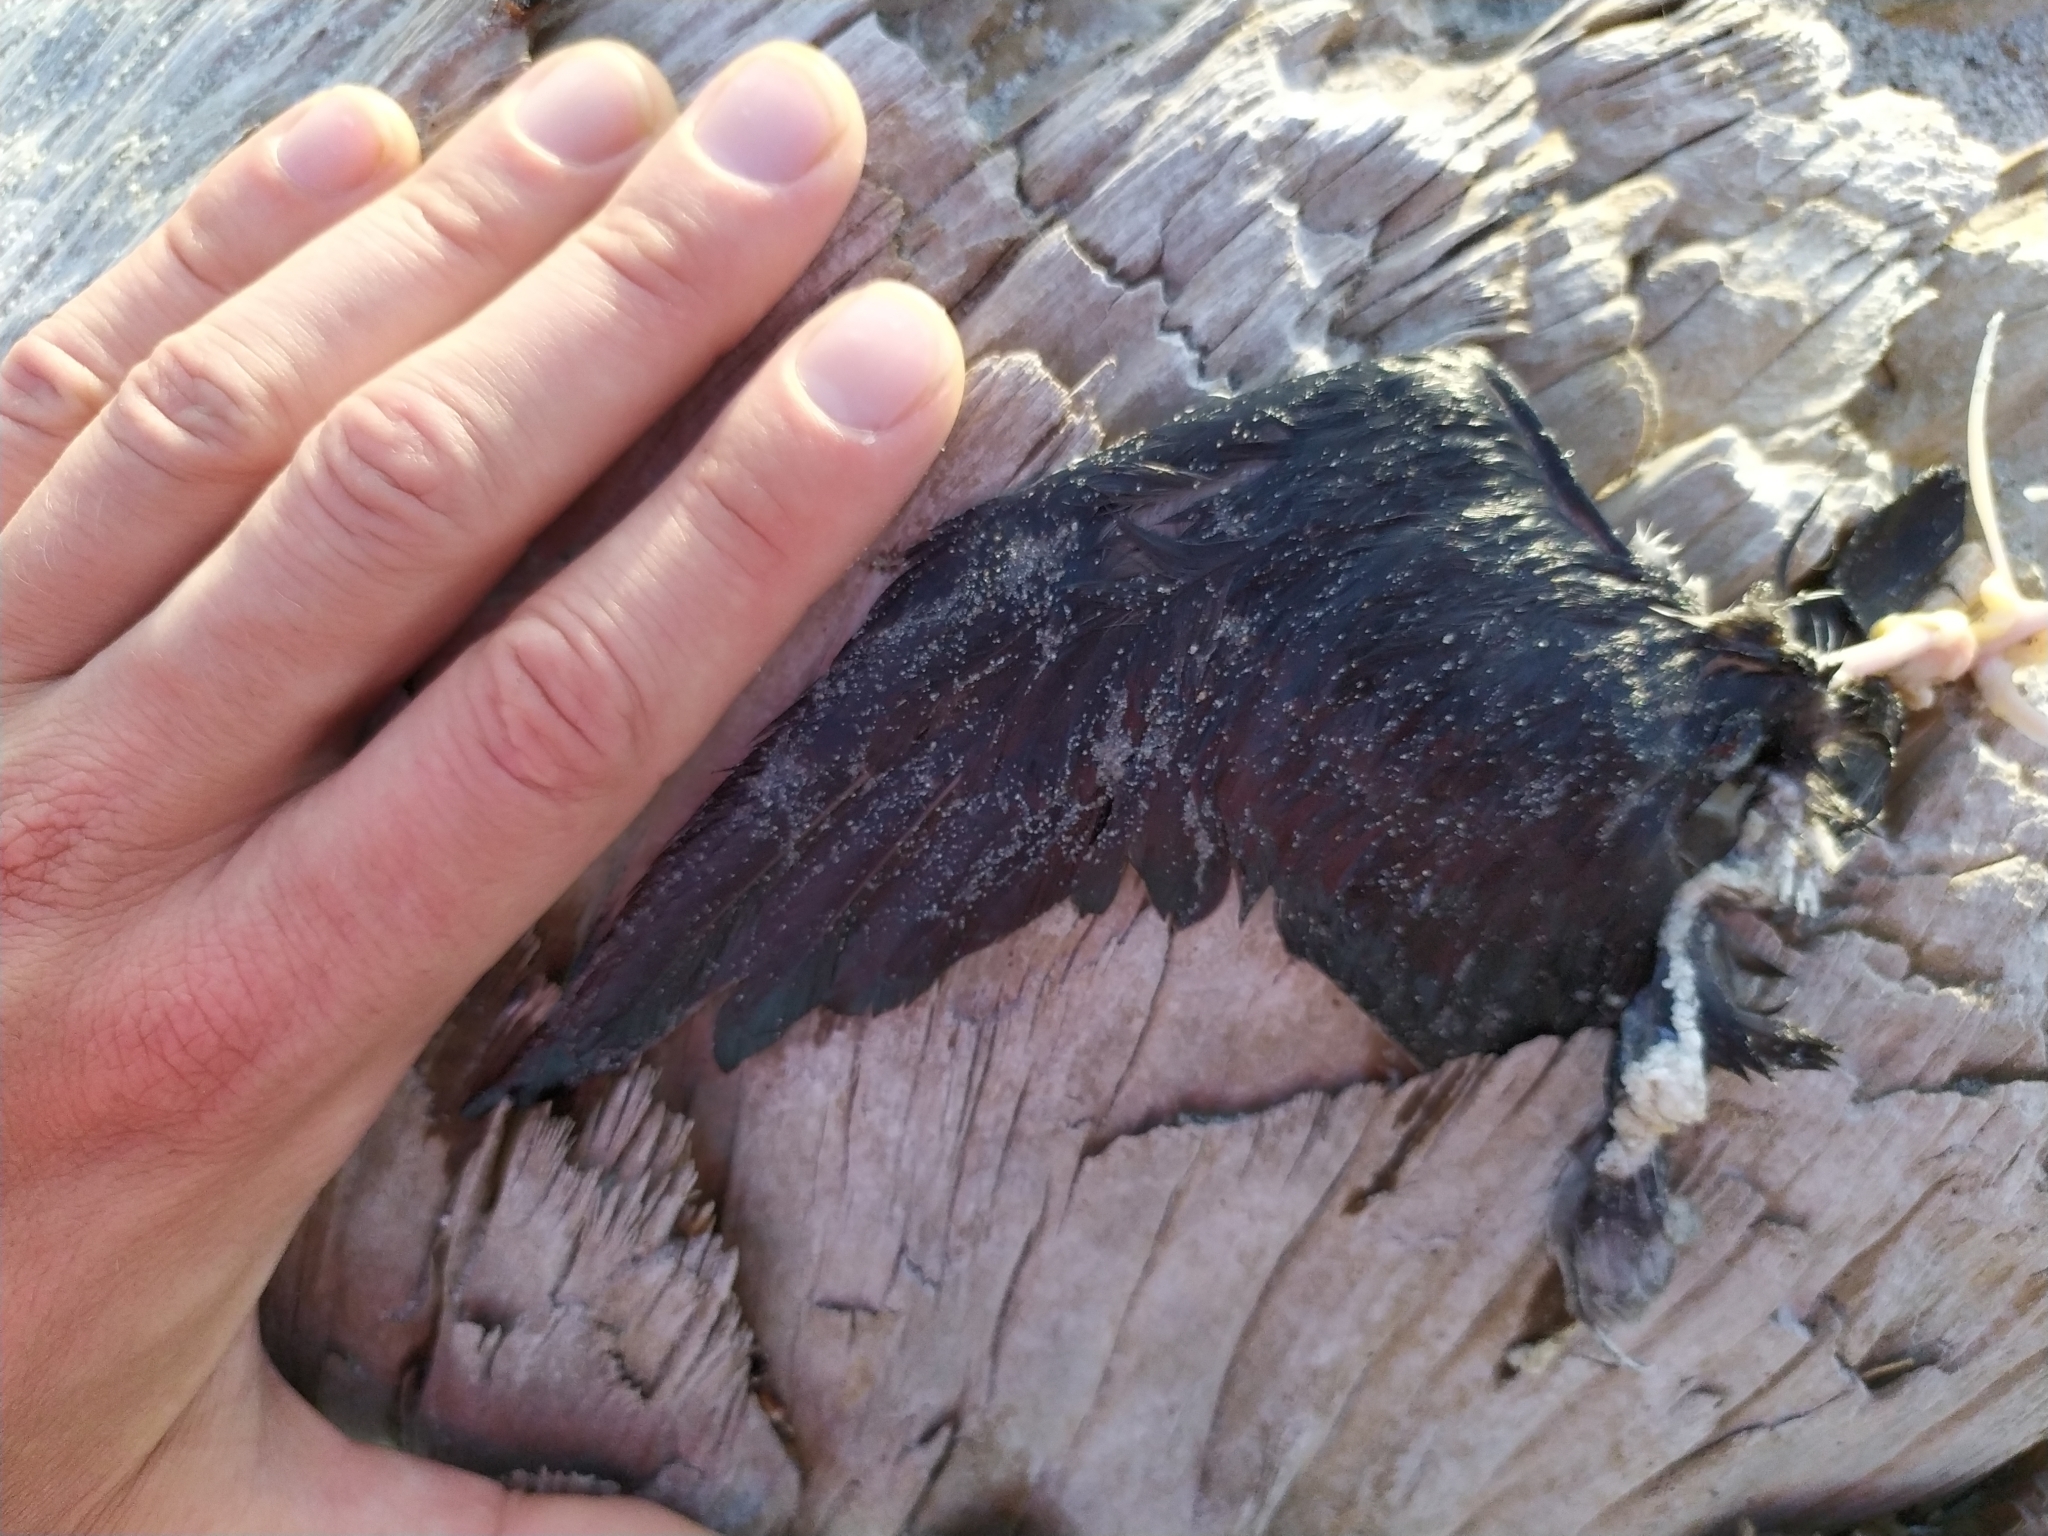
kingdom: Animalia
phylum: Chordata
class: Aves
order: Procellariiformes
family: Pelecanoididae
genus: Pelecanoides
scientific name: Pelecanoides urinatrix
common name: Common diving-petrel
